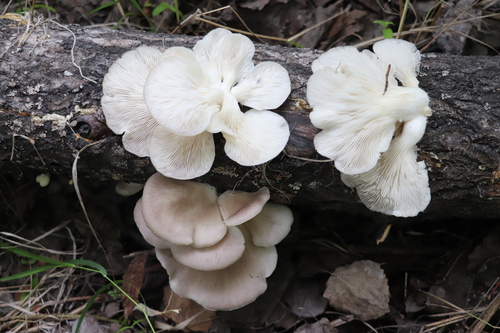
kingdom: Fungi
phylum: Basidiomycota
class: Agaricomycetes
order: Agaricales
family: Pleurotaceae
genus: Pleurotus
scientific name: Pleurotus pulmonarius
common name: Pale oyster
